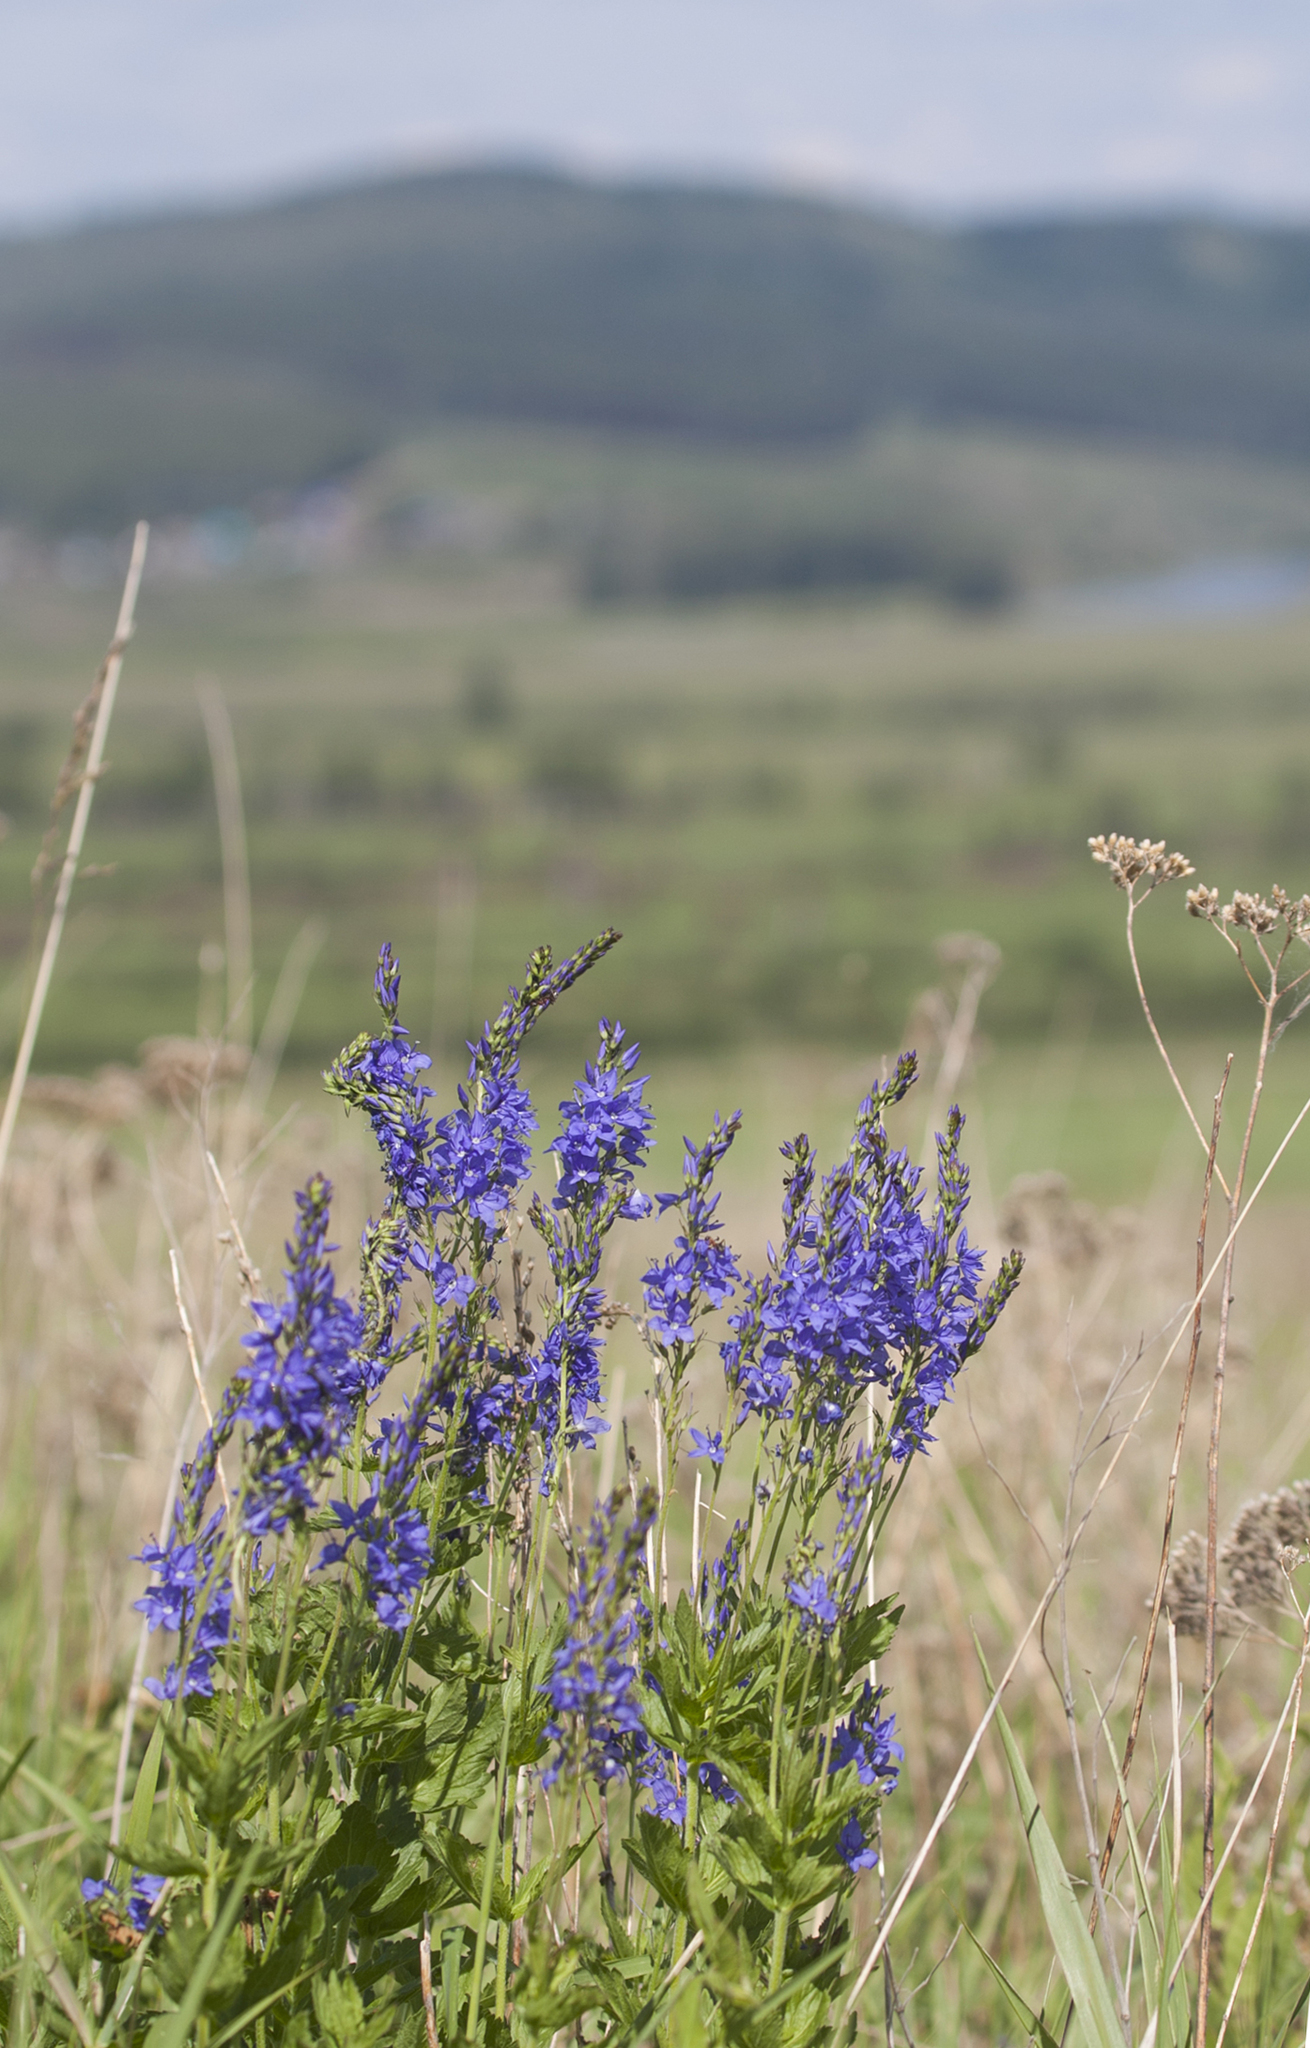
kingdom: Plantae
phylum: Tracheophyta
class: Magnoliopsida
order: Lamiales
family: Plantaginaceae
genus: Veronica
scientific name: Veronica teucrium
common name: Large speedwell
